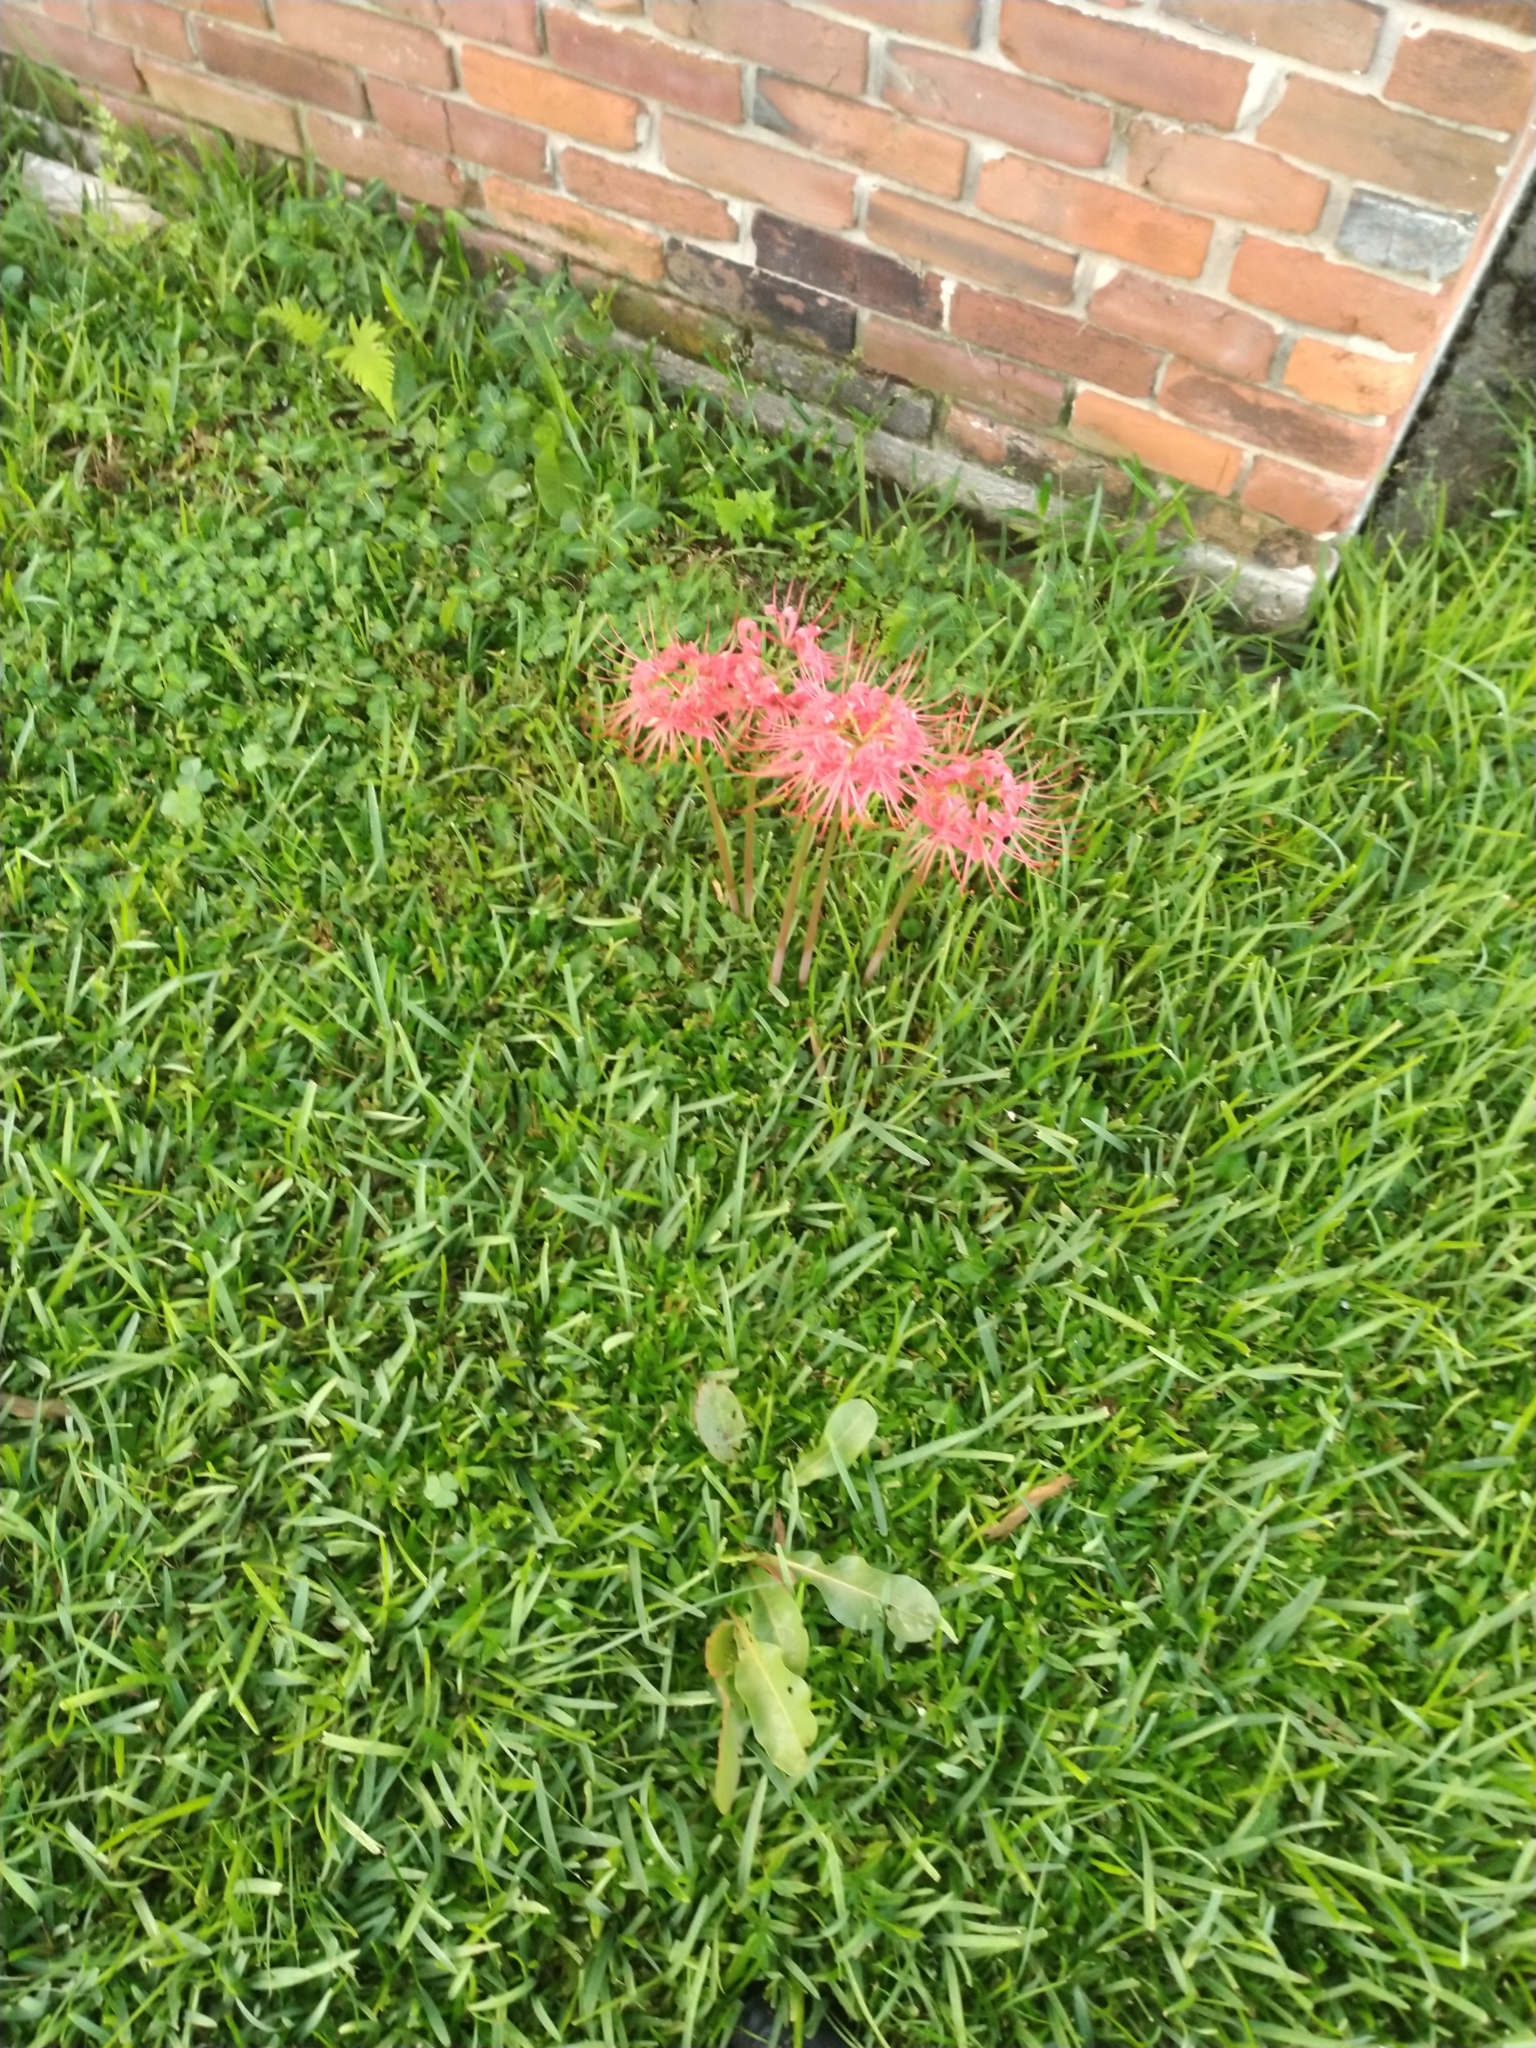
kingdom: Plantae
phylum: Tracheophyta
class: Liliopsida
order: Asparagales
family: Amaryllidaceae
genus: Lycoris
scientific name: Lycoris radiata
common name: Red spider lily
